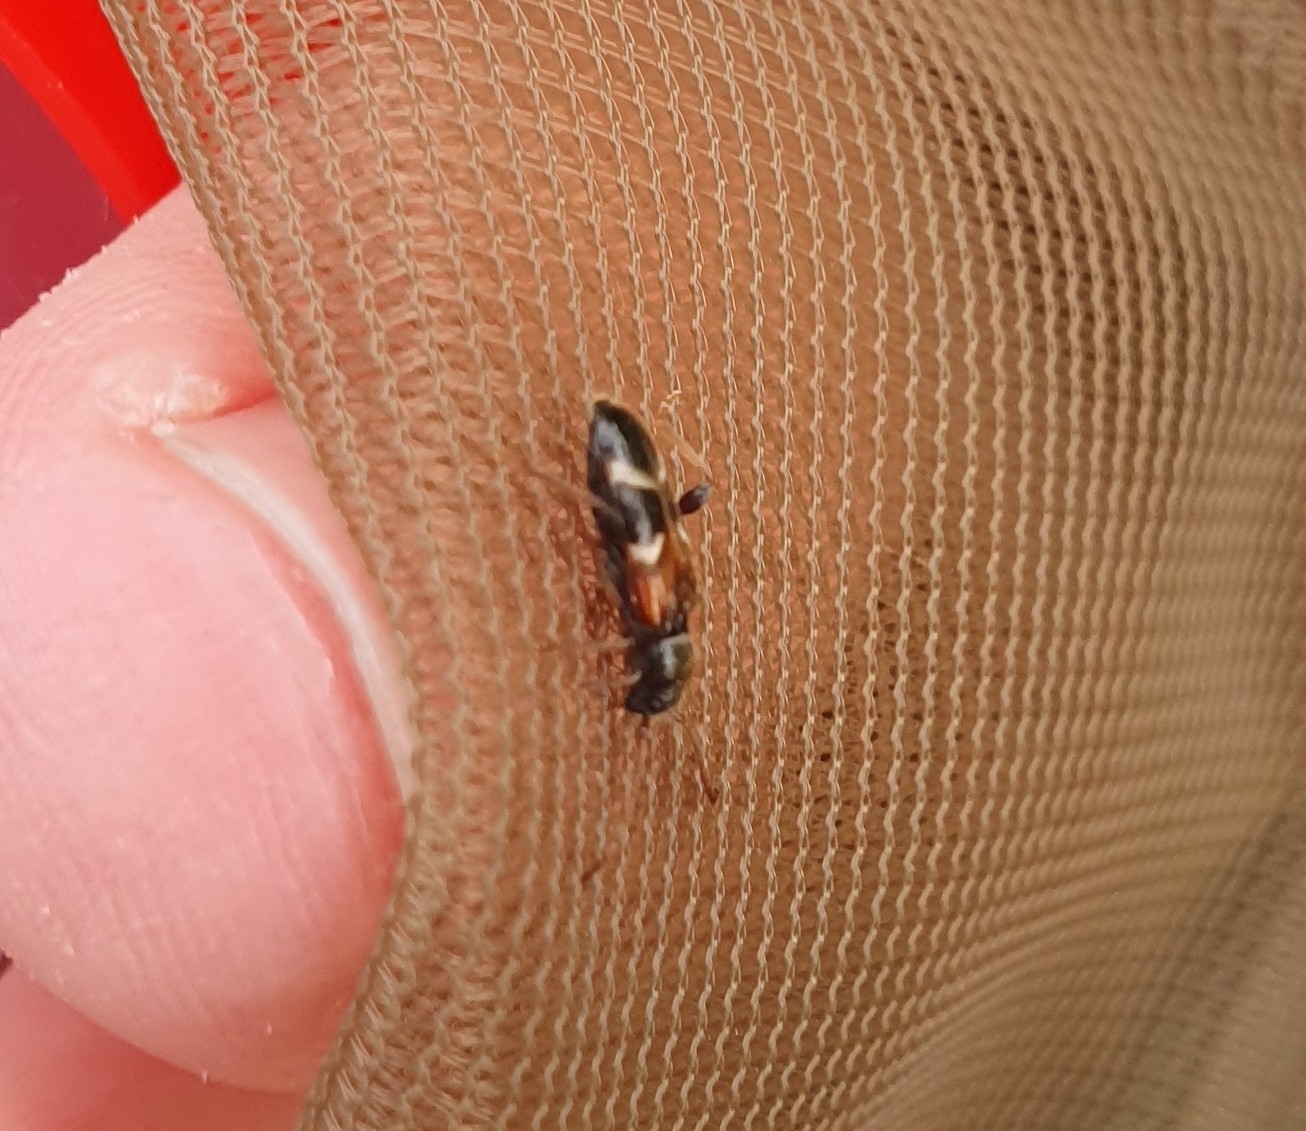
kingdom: Animalia
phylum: Arthropoda
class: Insecta
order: Coleoptera
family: Cerambycidae
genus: Poecilium
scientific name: Poecilium alni
